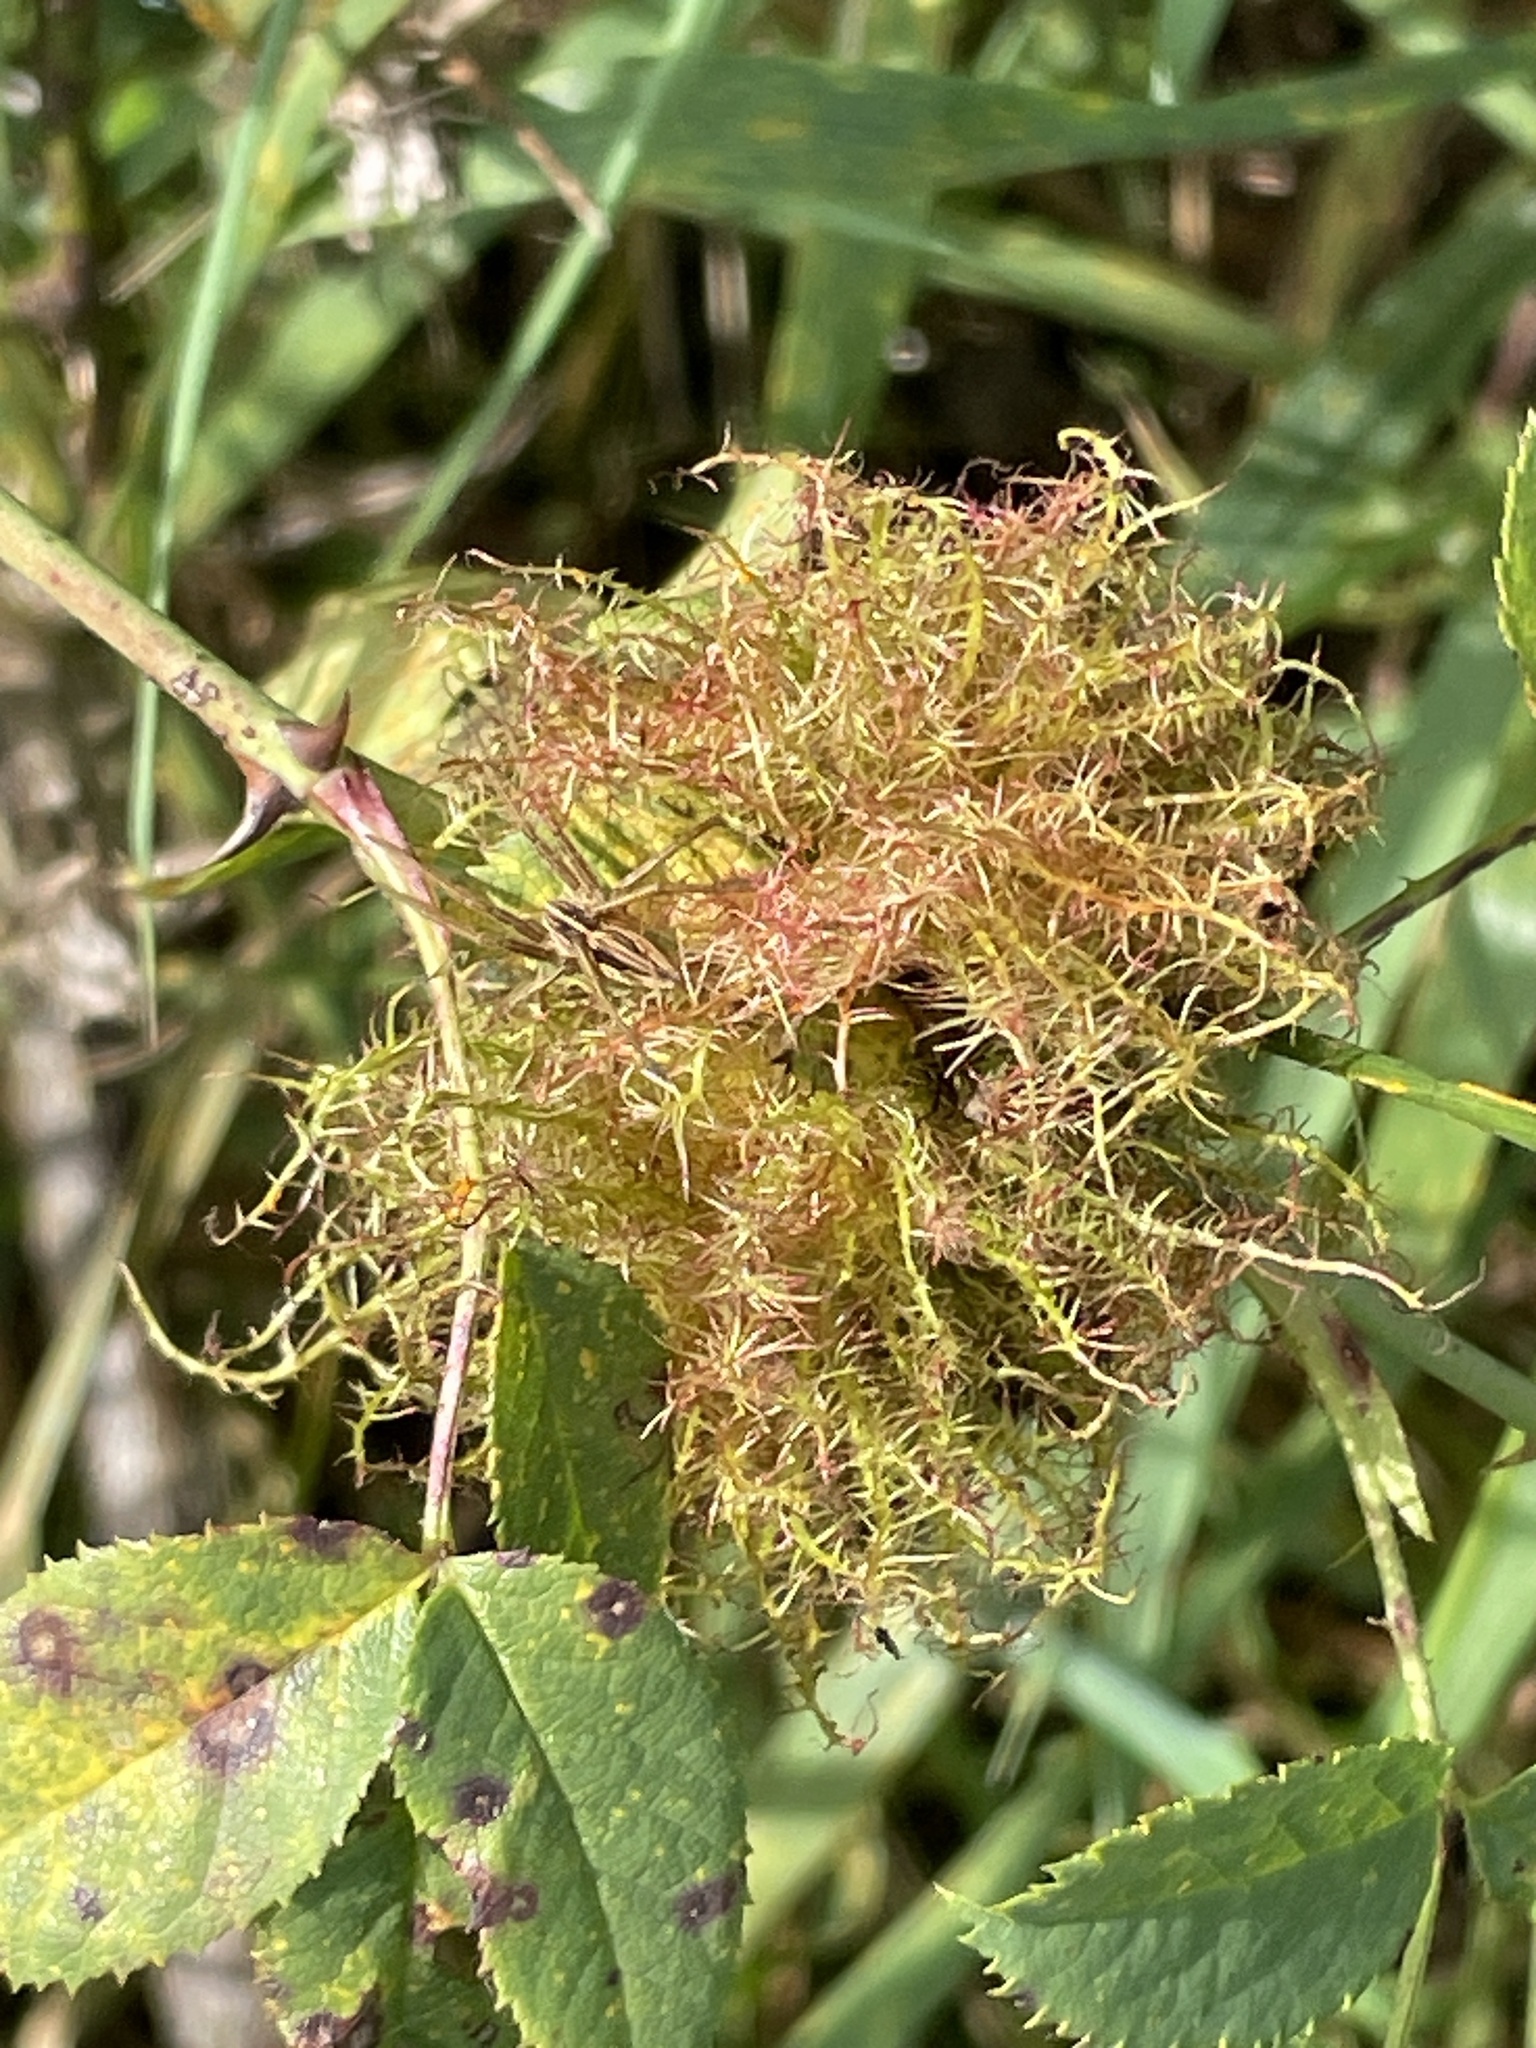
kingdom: Animalia
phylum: Arthropoda
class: Insecta
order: Hymenoptera
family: Cynipidae
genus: Diplolepis
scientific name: Diplolepis rosae
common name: Bedeguar gall
